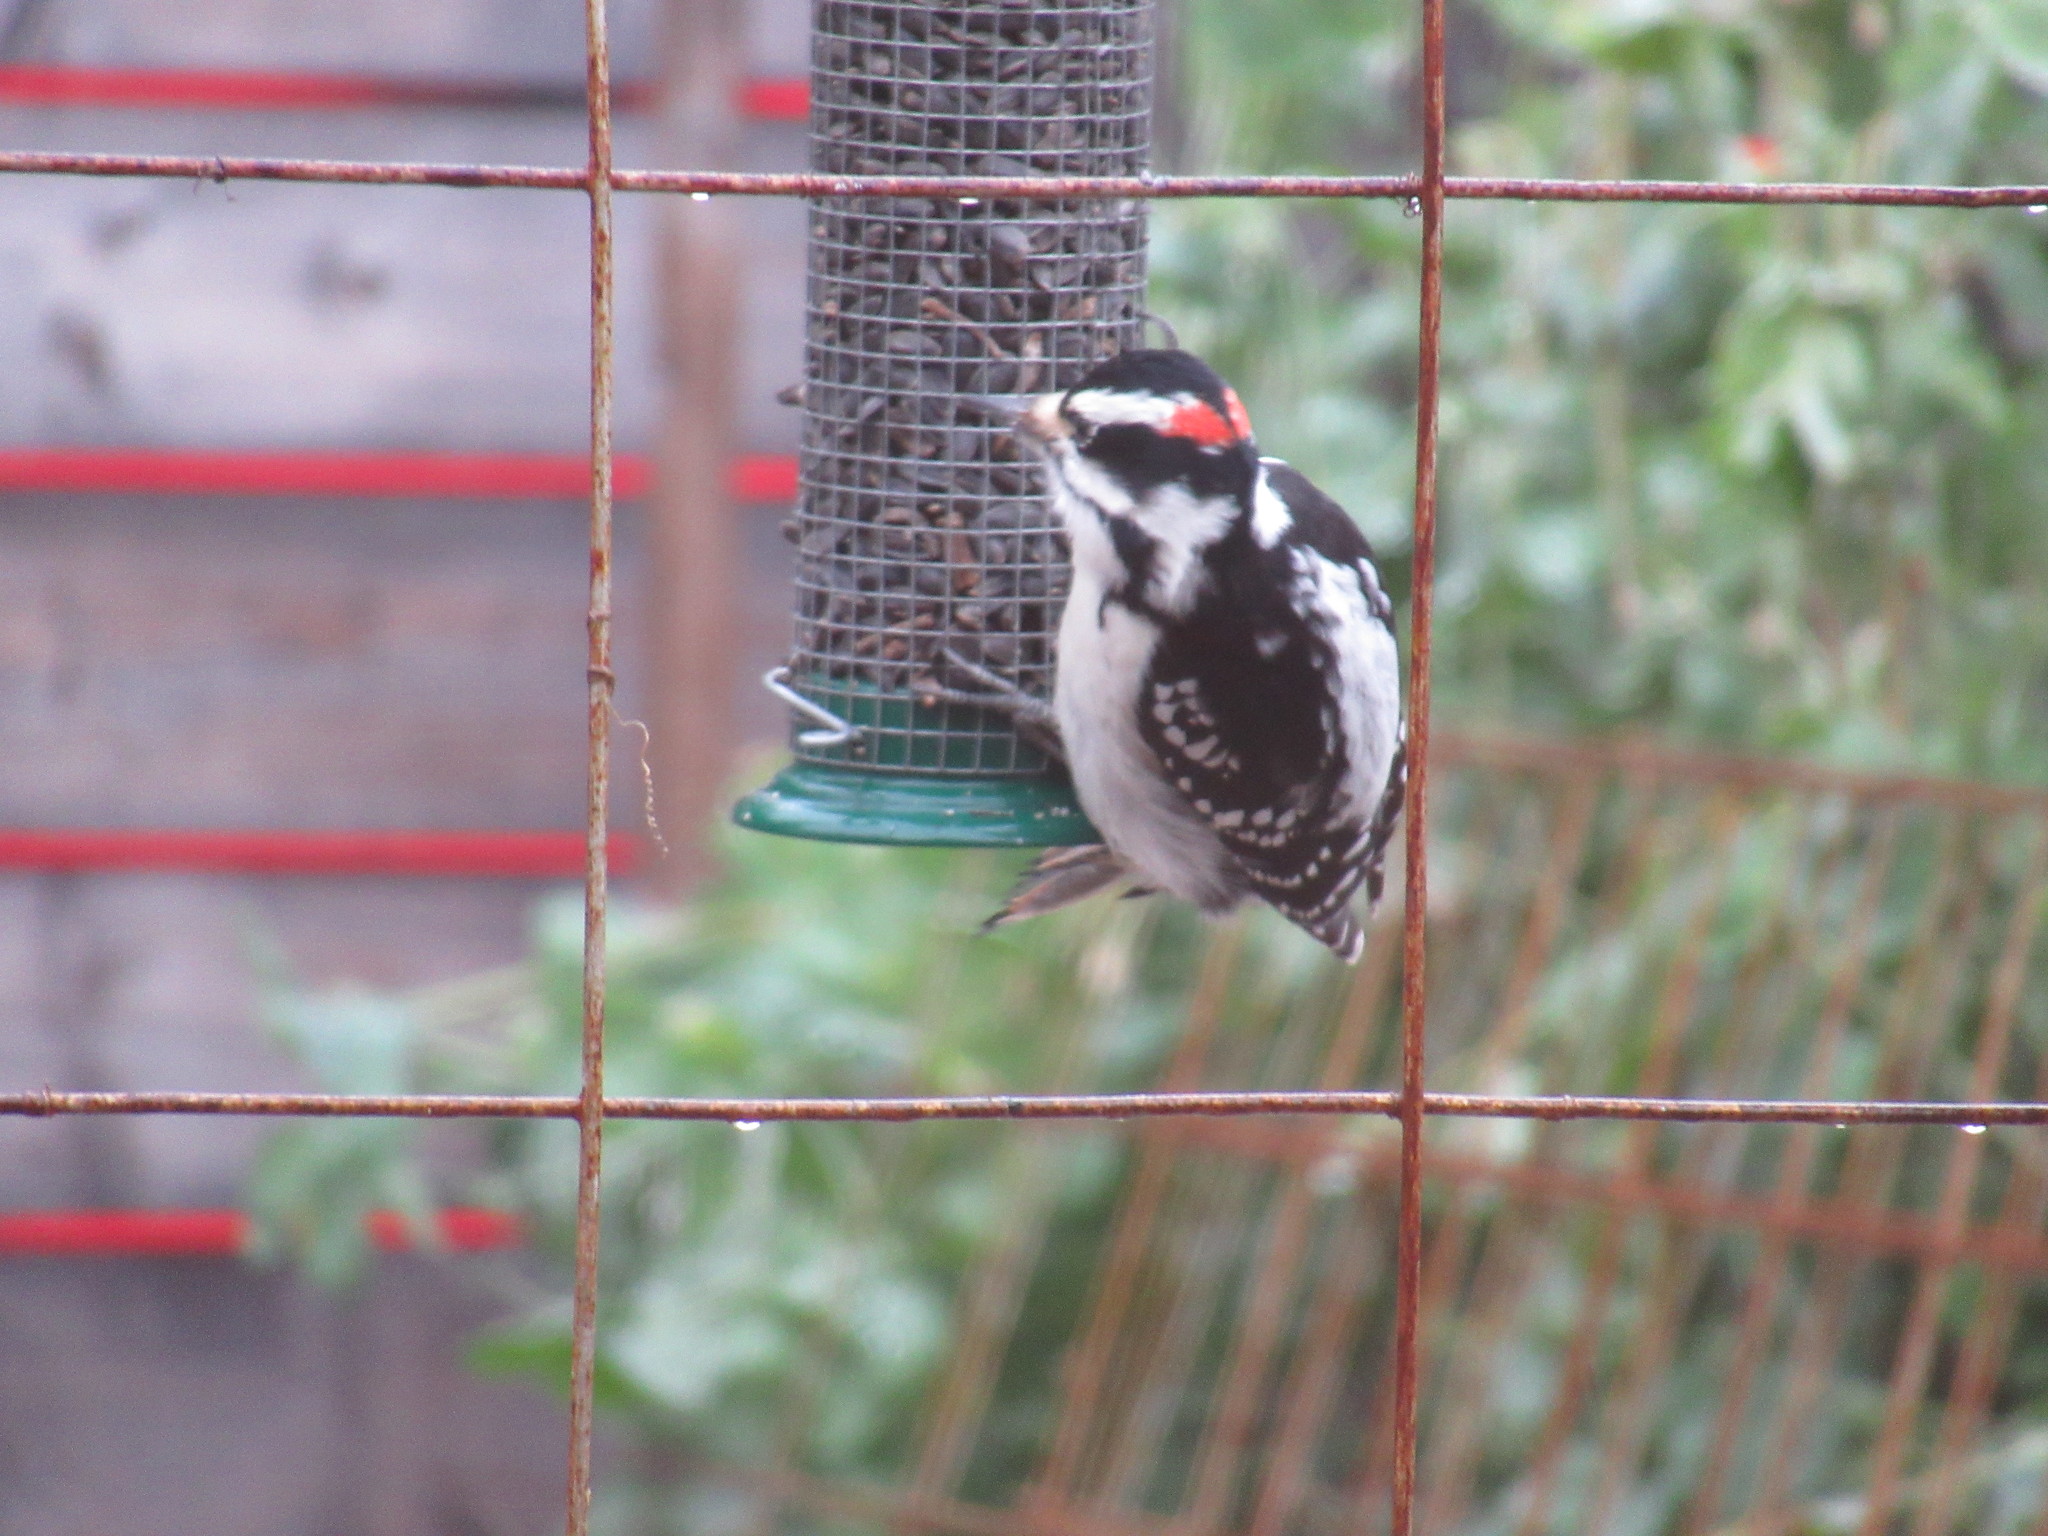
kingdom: Animalia
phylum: Chordata
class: Aves
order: Piciformes
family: Picidae
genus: Leuconotopicus
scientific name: Leuconotopicus villosus
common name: Hairy woodpecker
